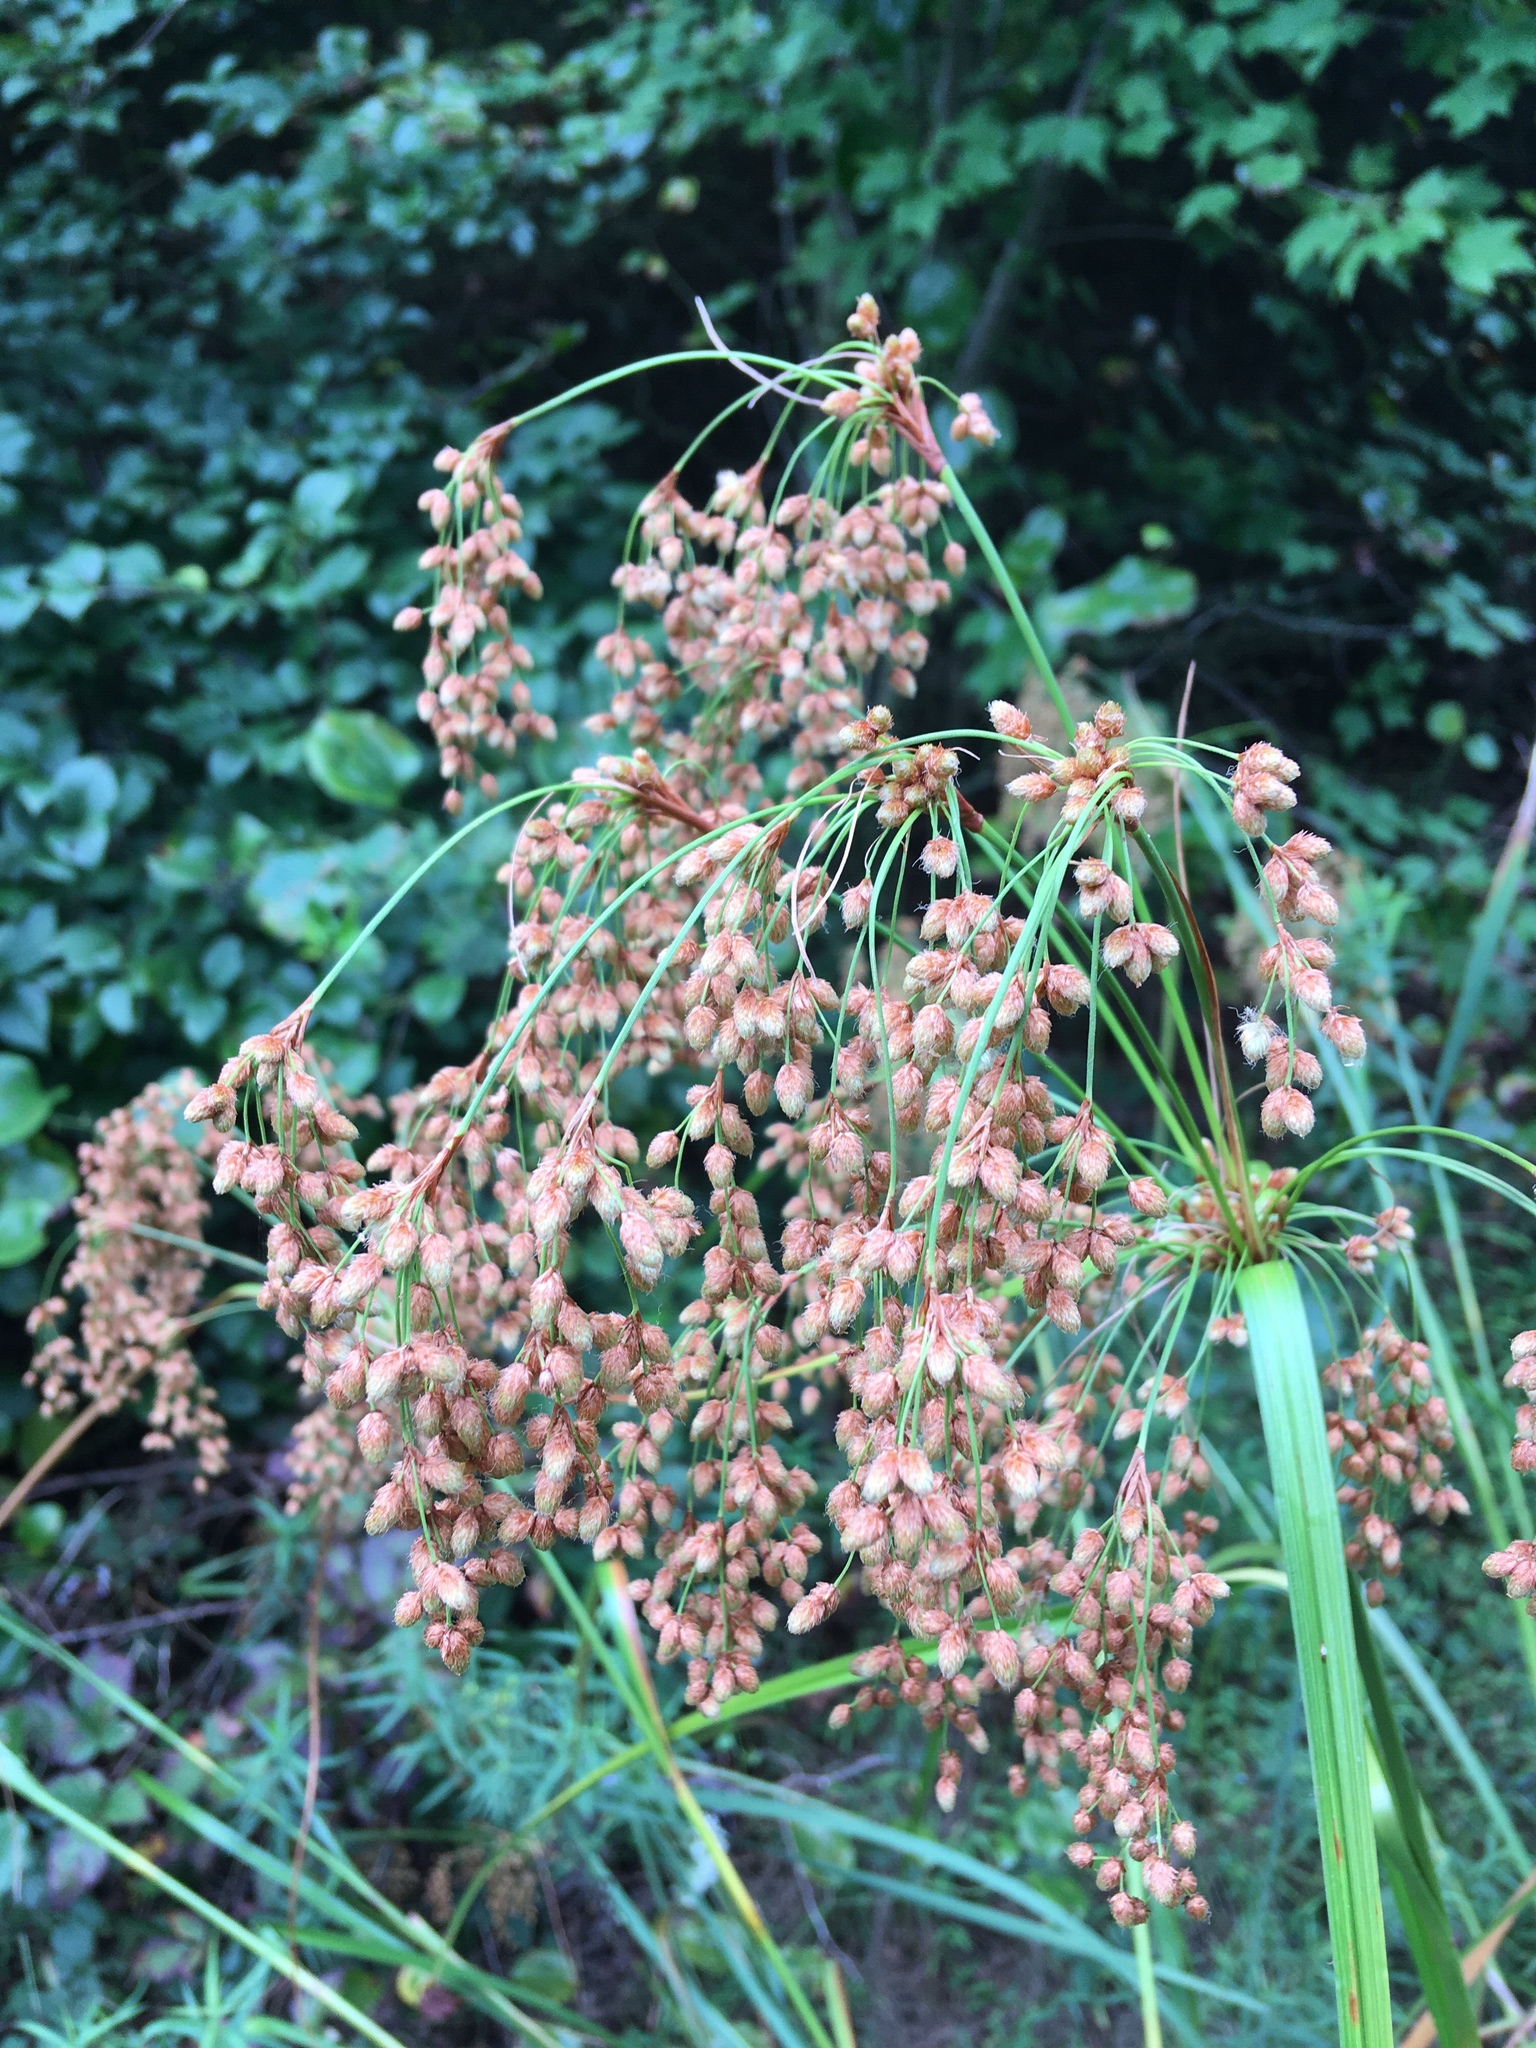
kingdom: Plantae
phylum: Tracheophyta
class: Liliopsida
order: Poales
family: Cyperaceae
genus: Scirpus
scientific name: Scirpus cyperinus
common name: Black-sheathed bulrush
